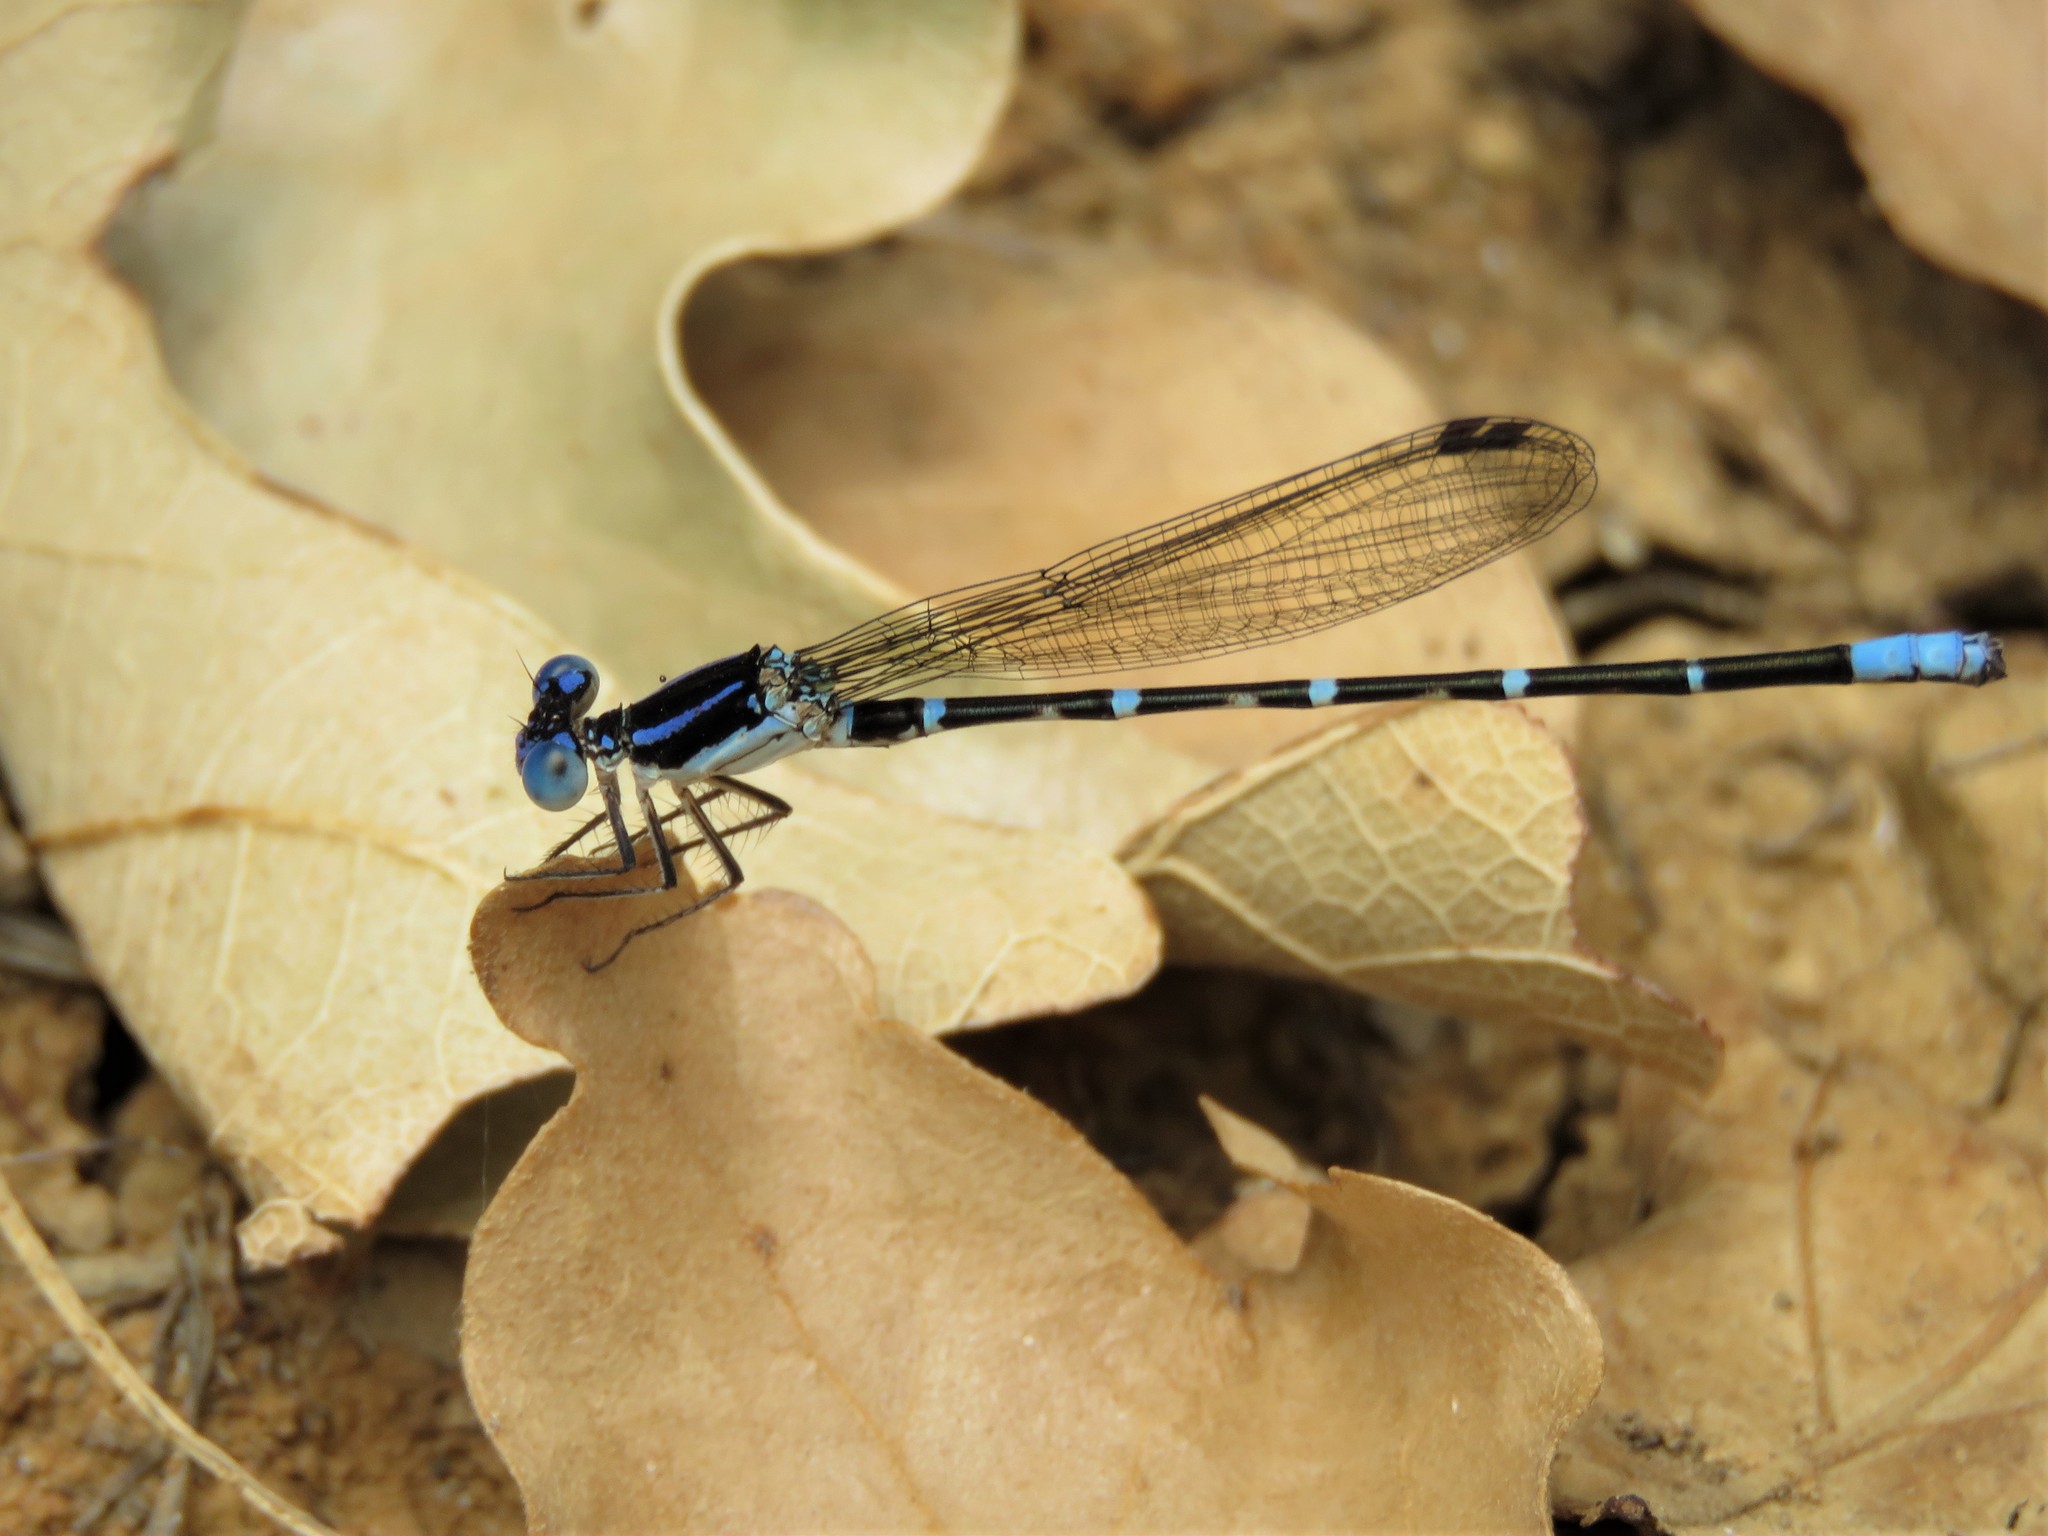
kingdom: Animalia
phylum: Arthropoda
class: Insecta
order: Odonata
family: Coenagrionidae
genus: Argia
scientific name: Argia sedula
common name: Blue-ringed dancer
